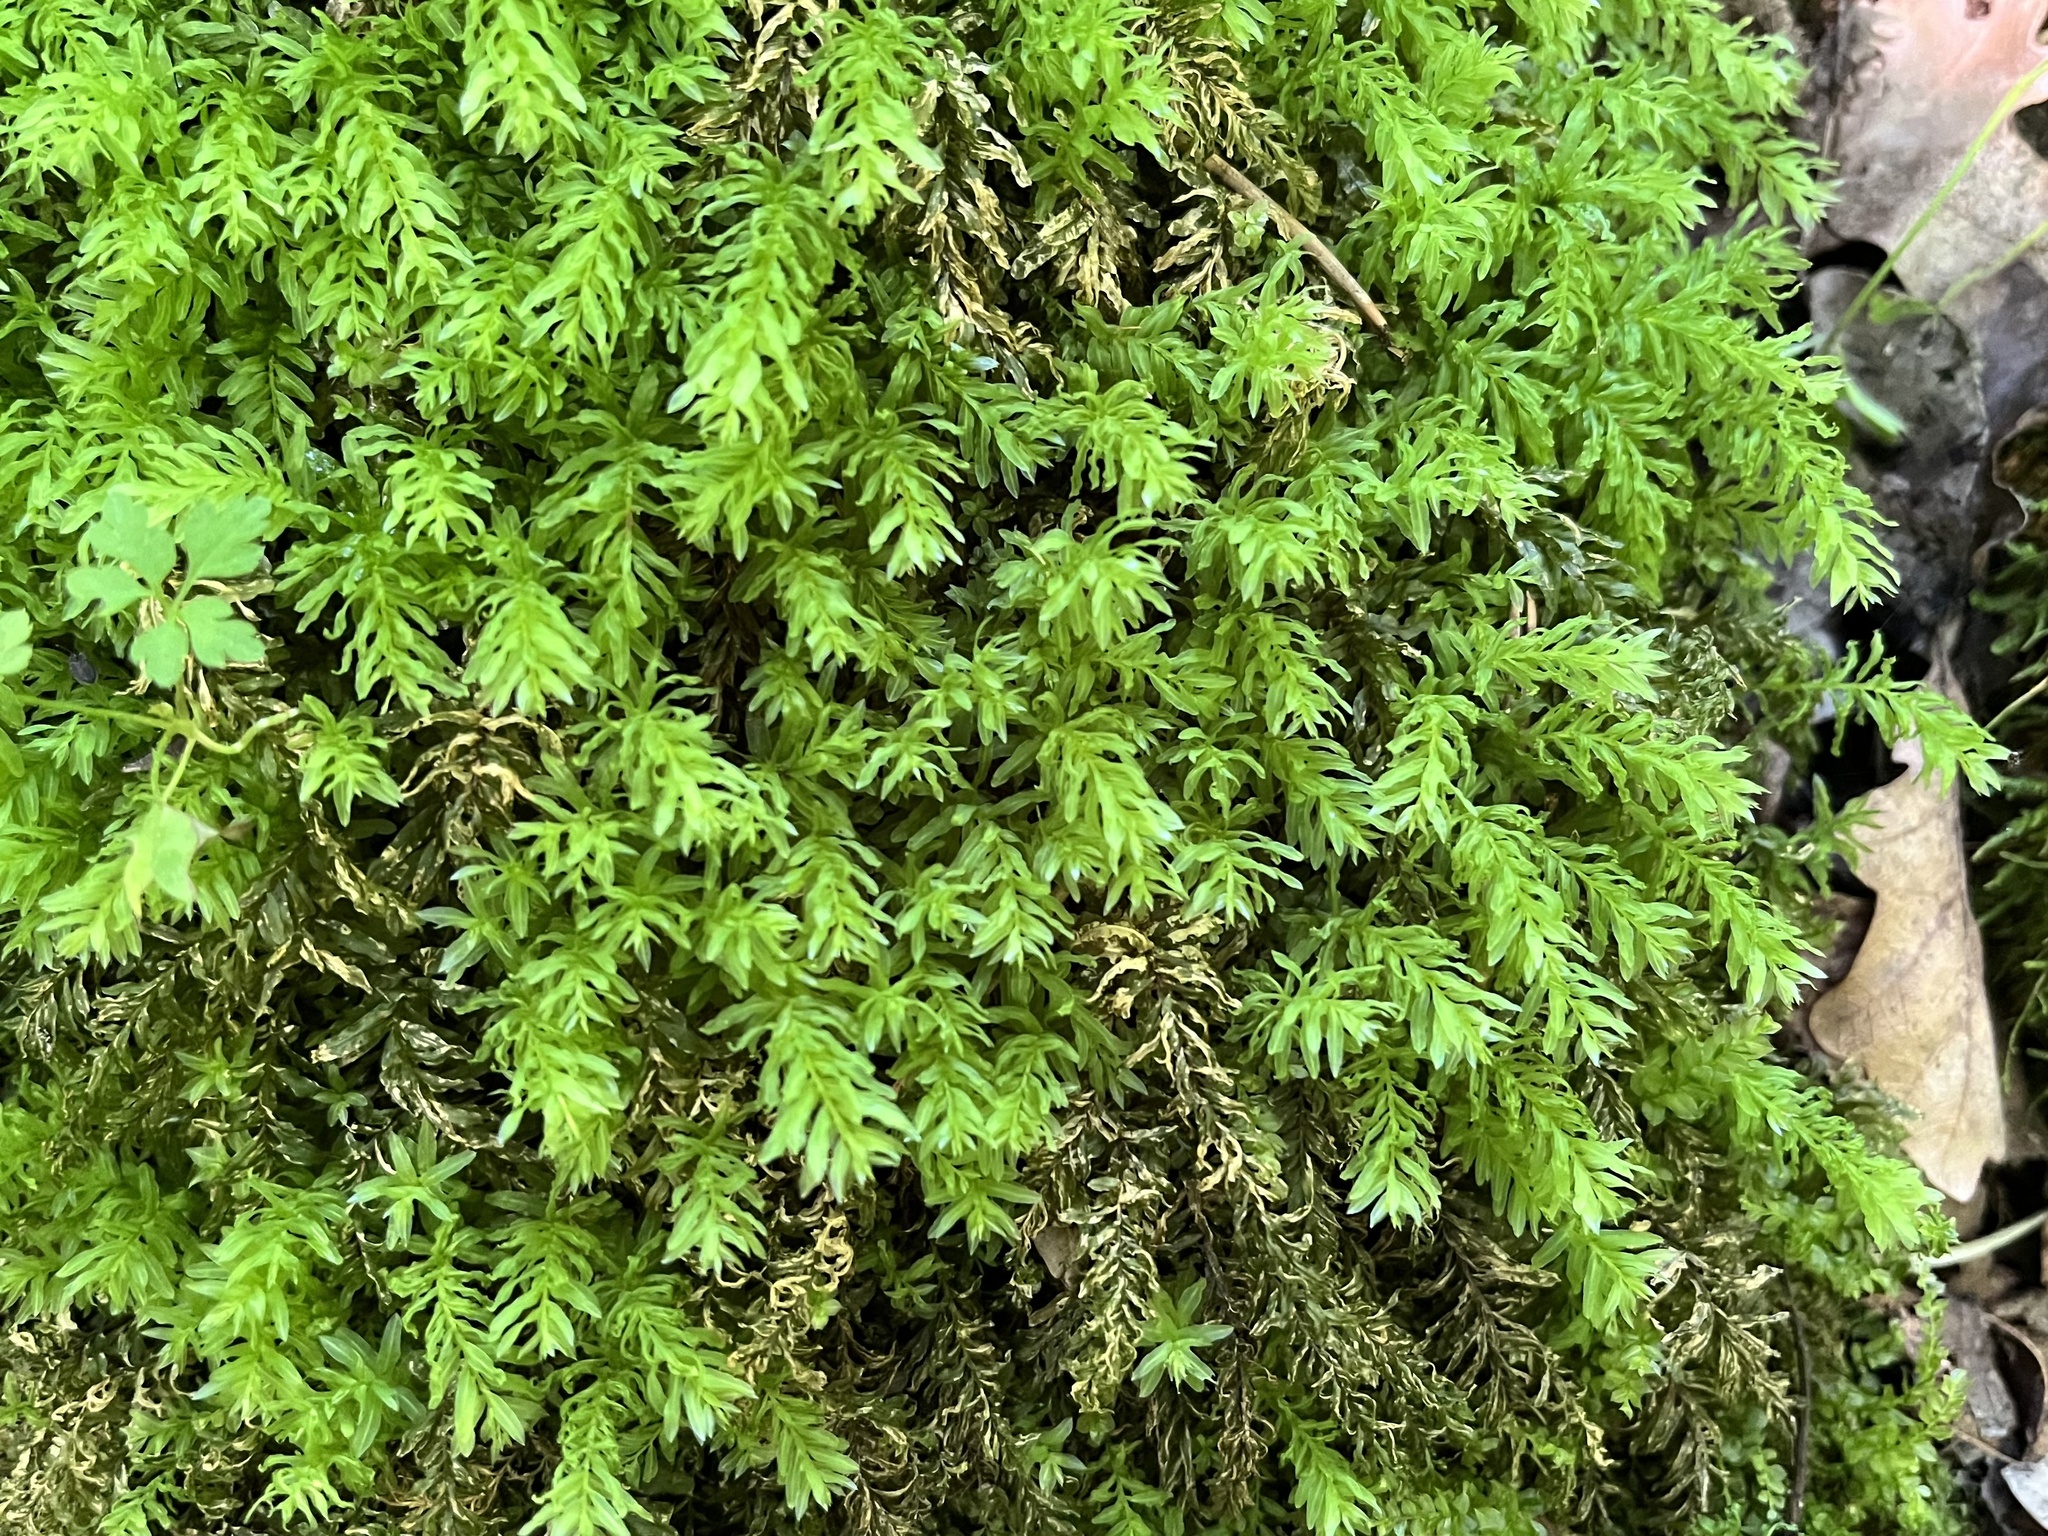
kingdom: Plantae
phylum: Bryophyta
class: Bryopsida
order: Bryales
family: Mniaceae
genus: Plagiomnium
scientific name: Plagiomnium undulatum
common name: Hart's-tongue thyme-moss
